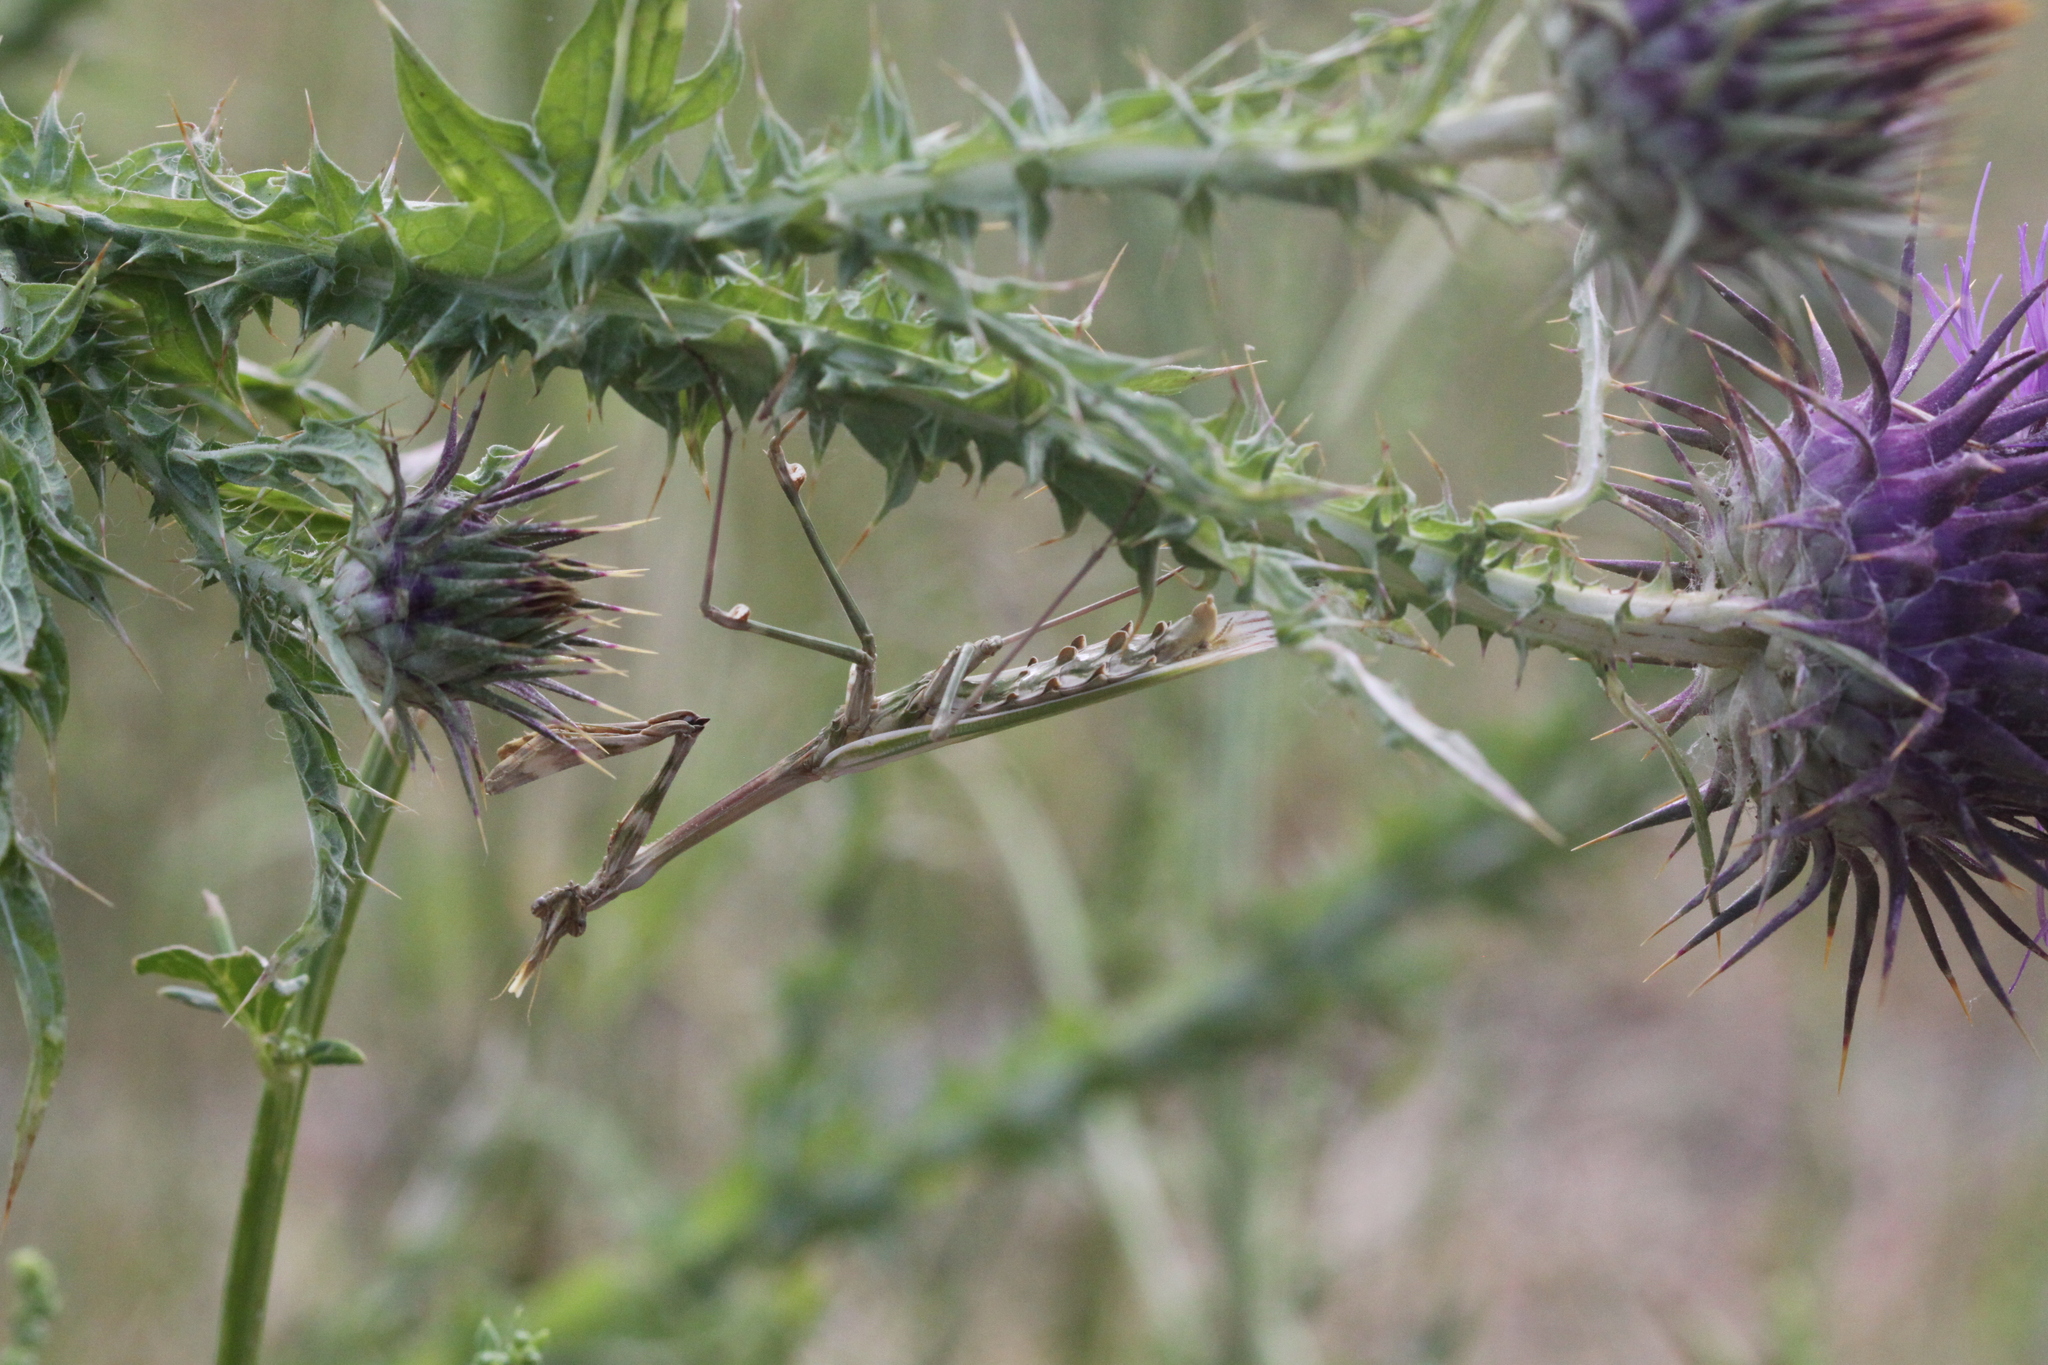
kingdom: Animalia
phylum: Arthropoda
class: Insecta
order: Mantodea
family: Empusidae
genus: Empusa
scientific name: Empusa pennata
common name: Conehead mantis
